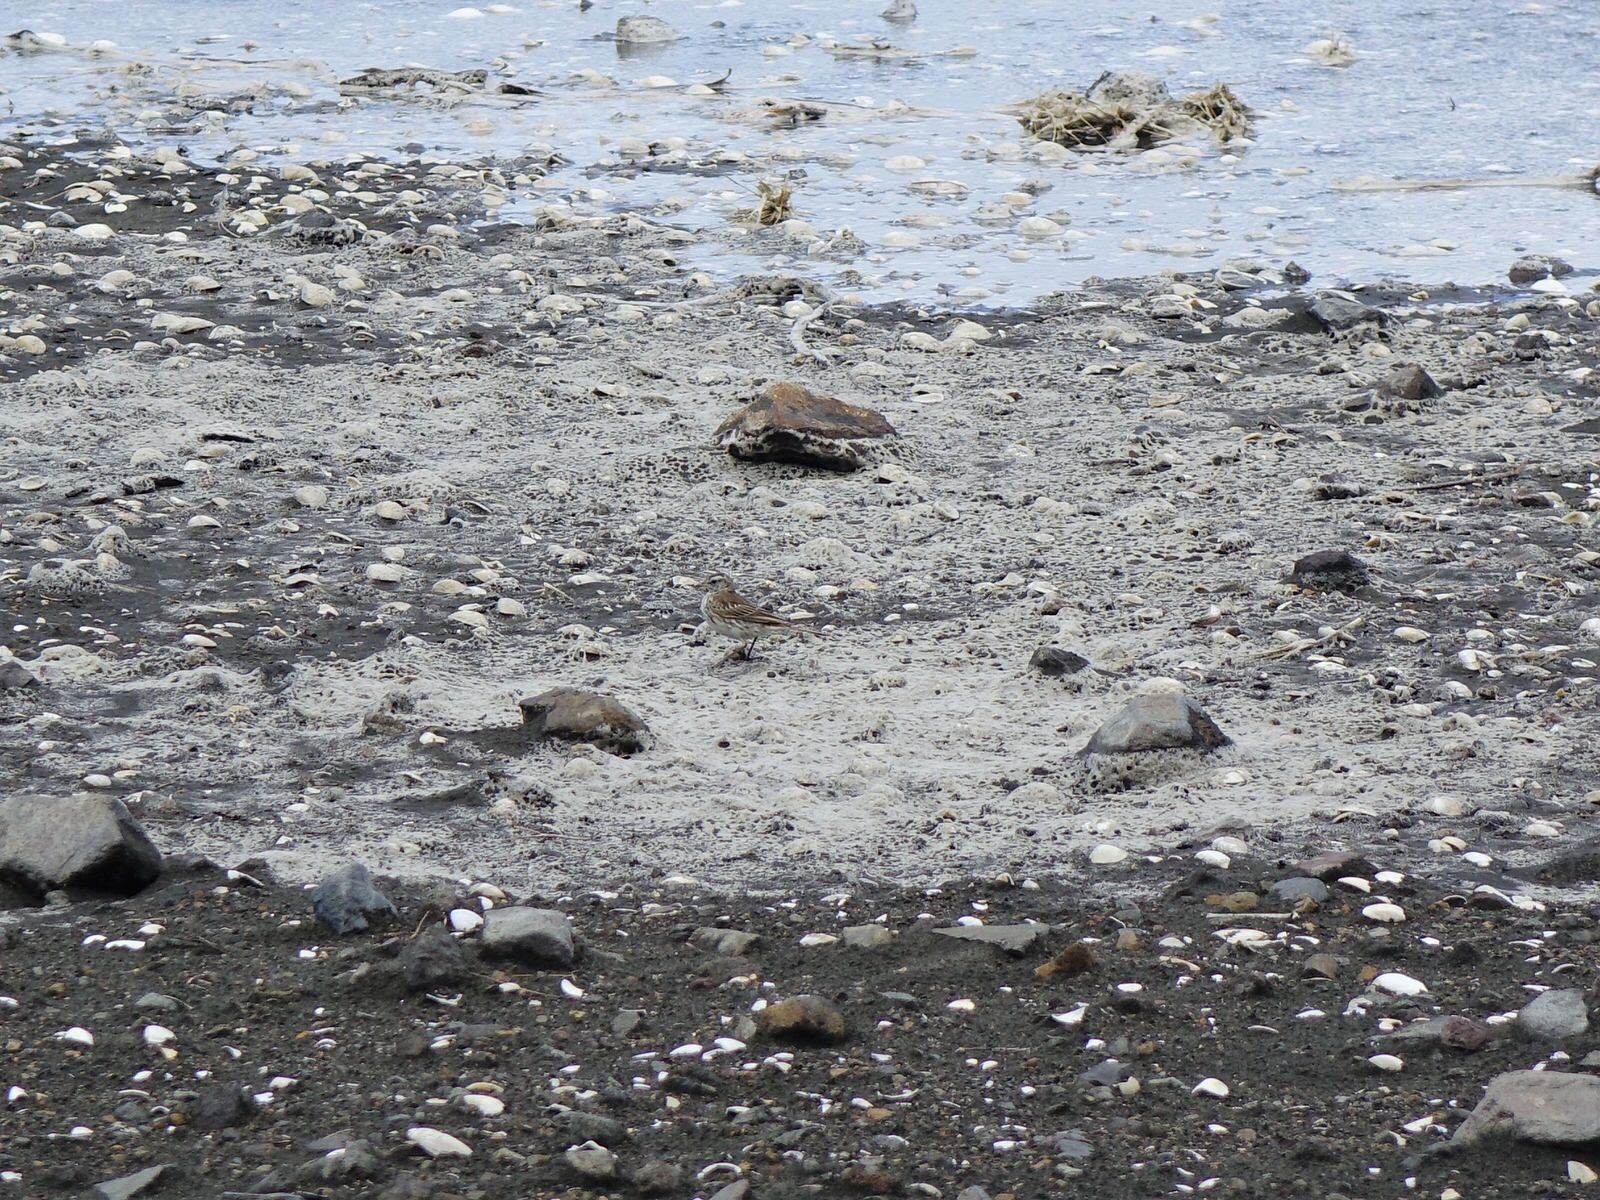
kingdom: Animalia
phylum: Chordata
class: Aves
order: Passeriformes
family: Motacillidae
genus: Anthus
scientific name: Anthus novaeseelandiae
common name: New zealand pipit
